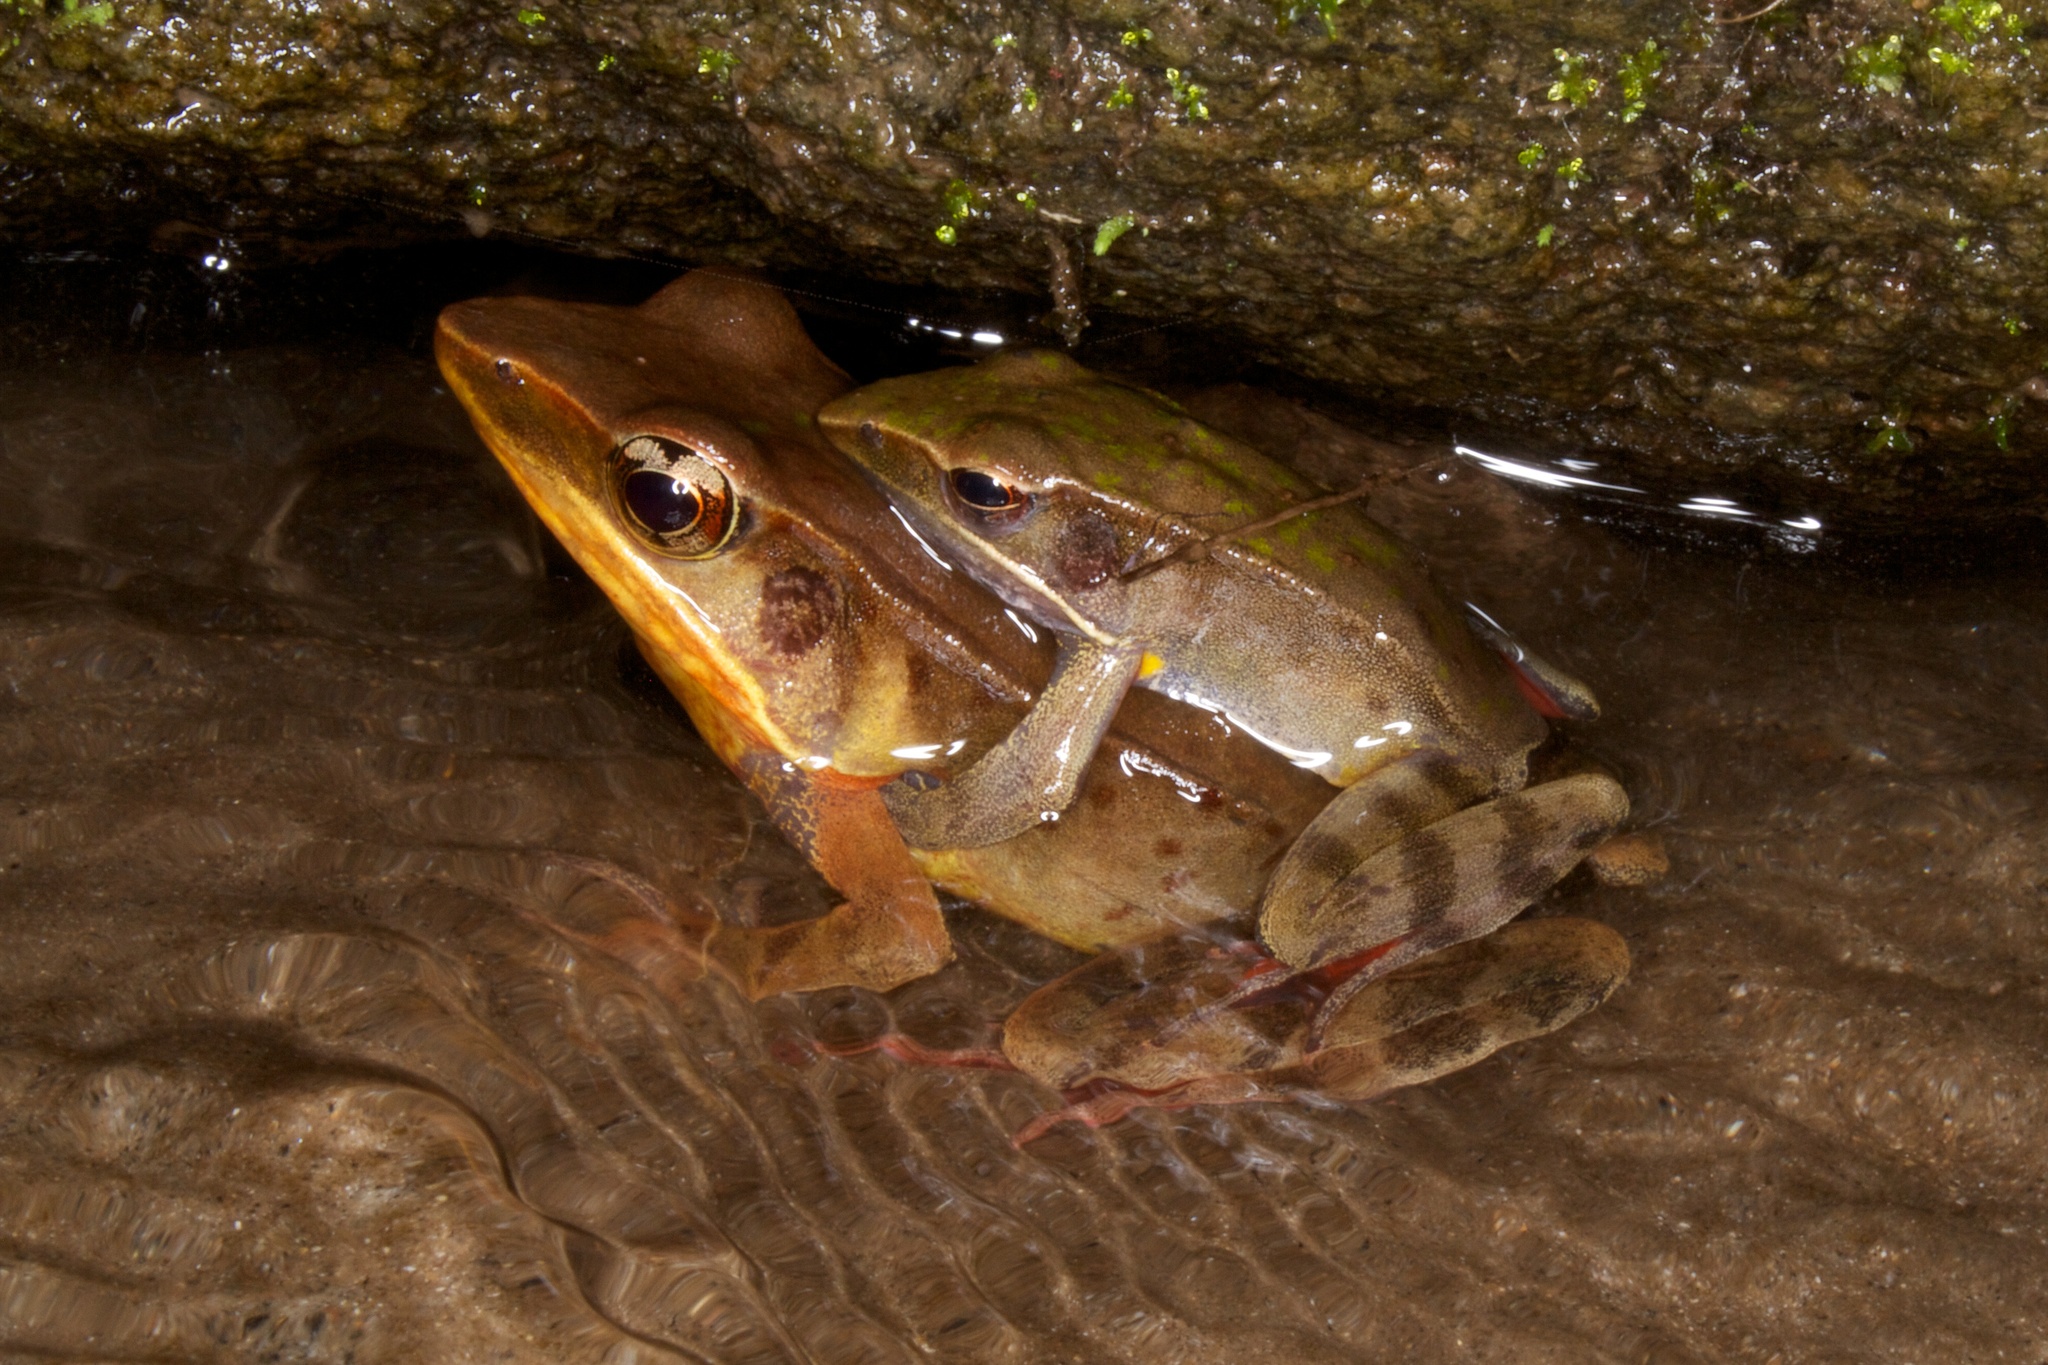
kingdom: Animalia
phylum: Chordata
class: Amphibia
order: Anura
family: Ranidae
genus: Lithobates
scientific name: Lithobates warszewitschii
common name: Warszewitsch's frog
